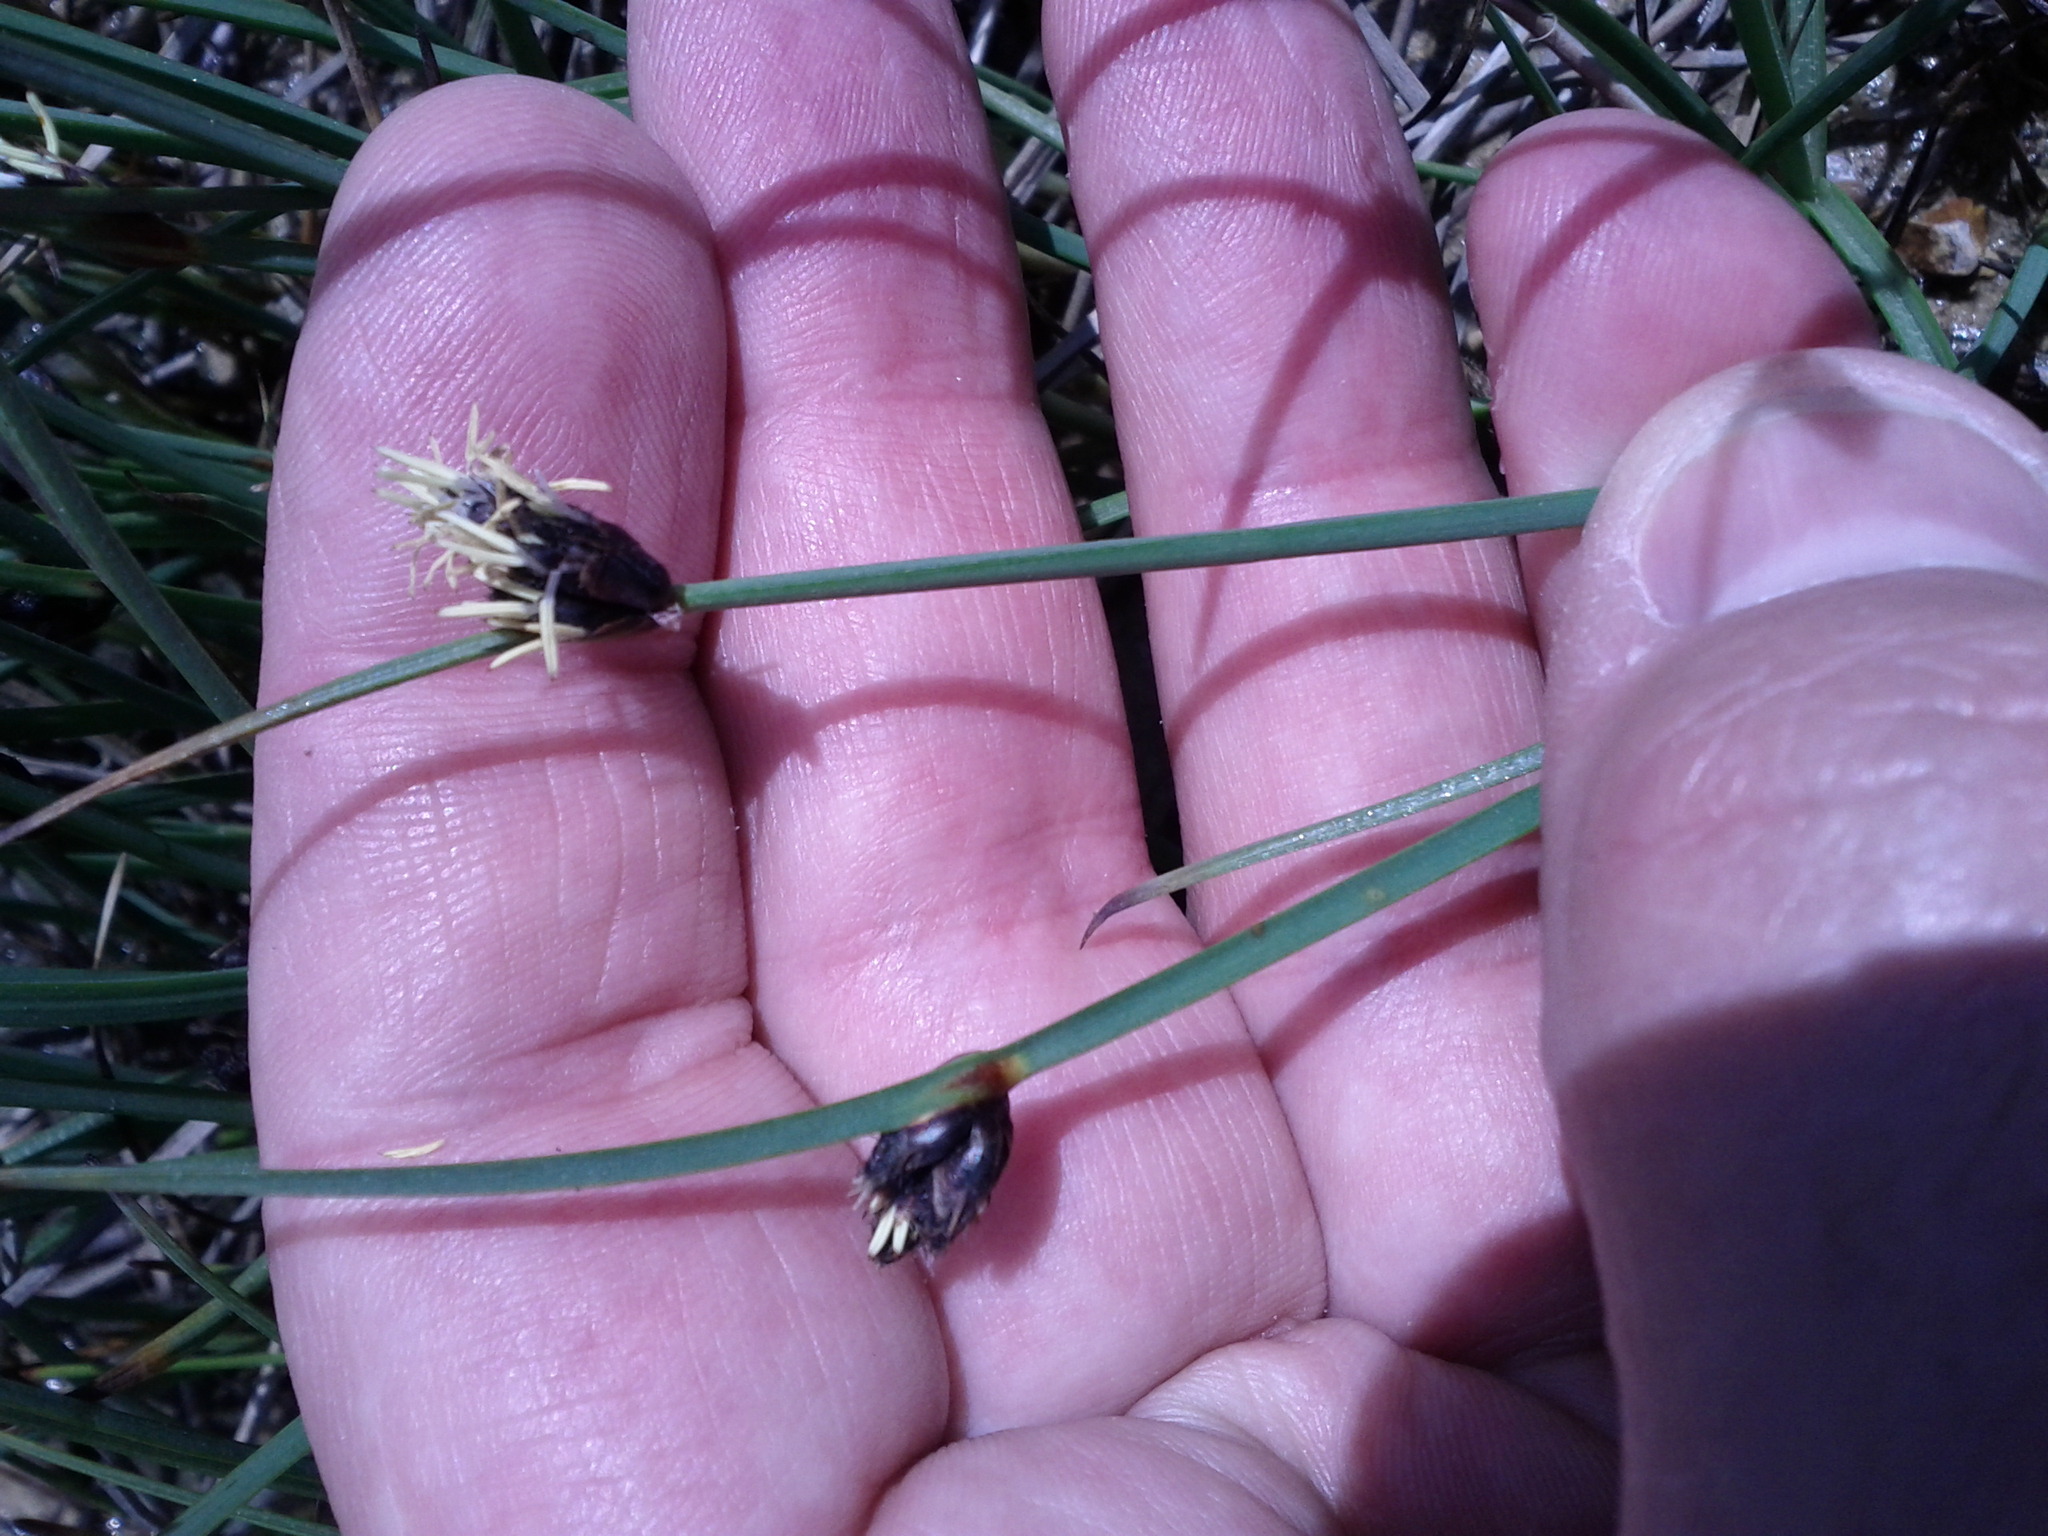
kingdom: Plantae
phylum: Tracheophyta
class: Liliopsida
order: Poales
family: Cyperaceae
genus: Schoenoplectus
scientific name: Schoenoplectus pungens
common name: Sharp club-rush
